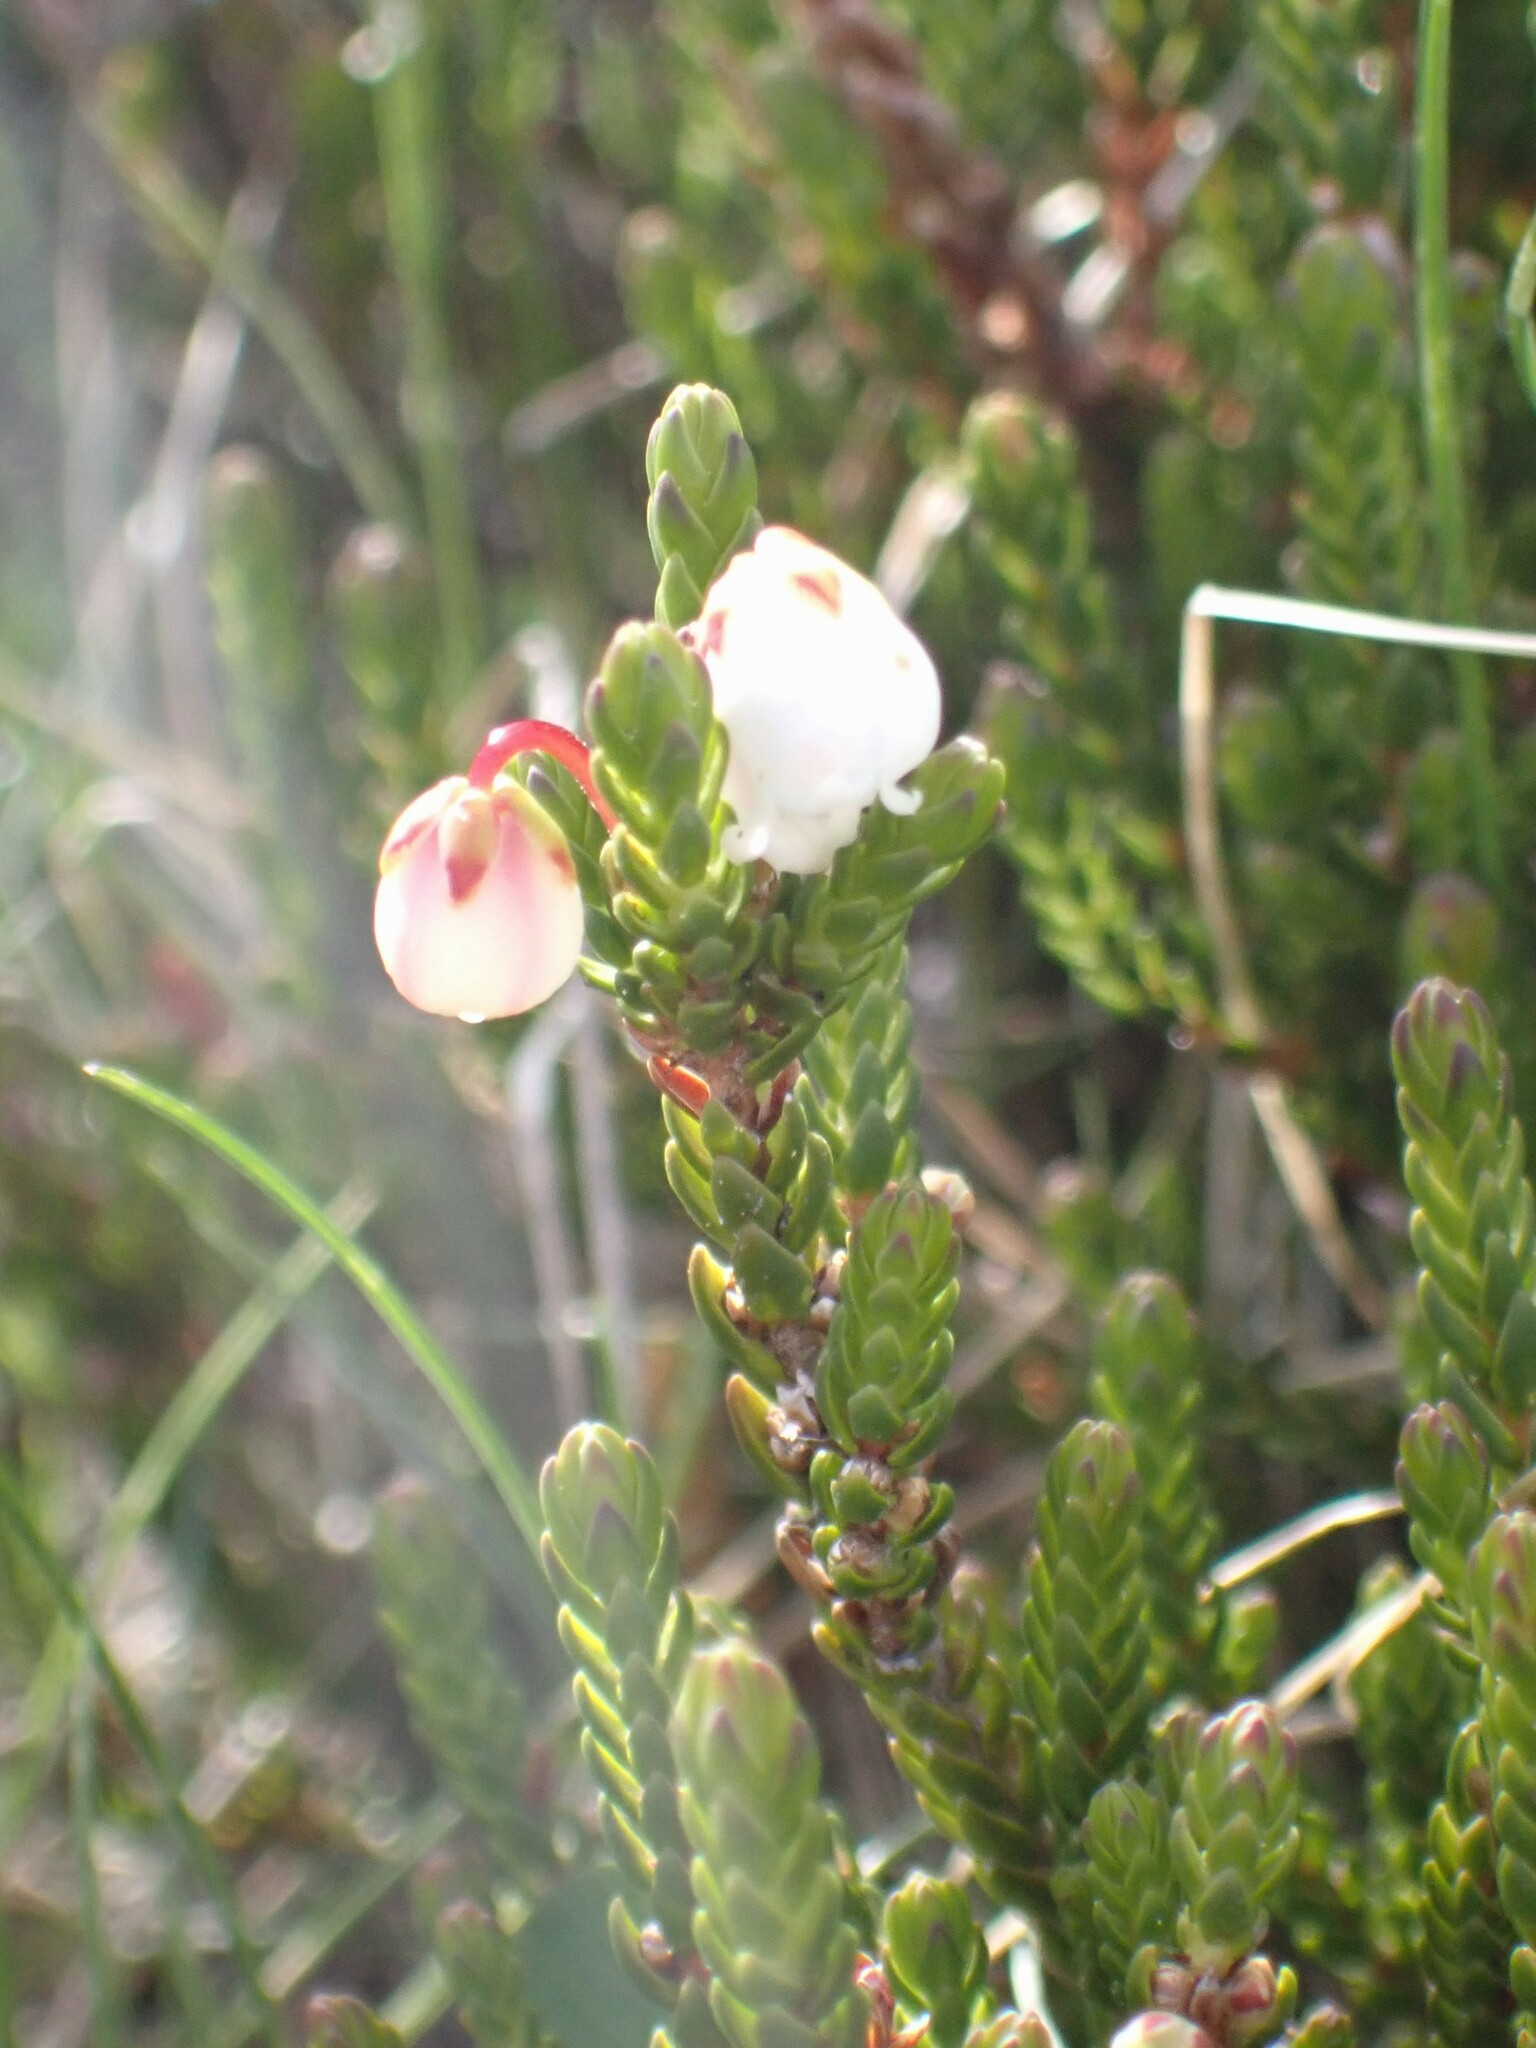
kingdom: Plantae
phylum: Tracheophyta
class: Magnoliopsida
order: Ericales
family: Ericaceae
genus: Cassiope
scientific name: Cassiope mertensiana
